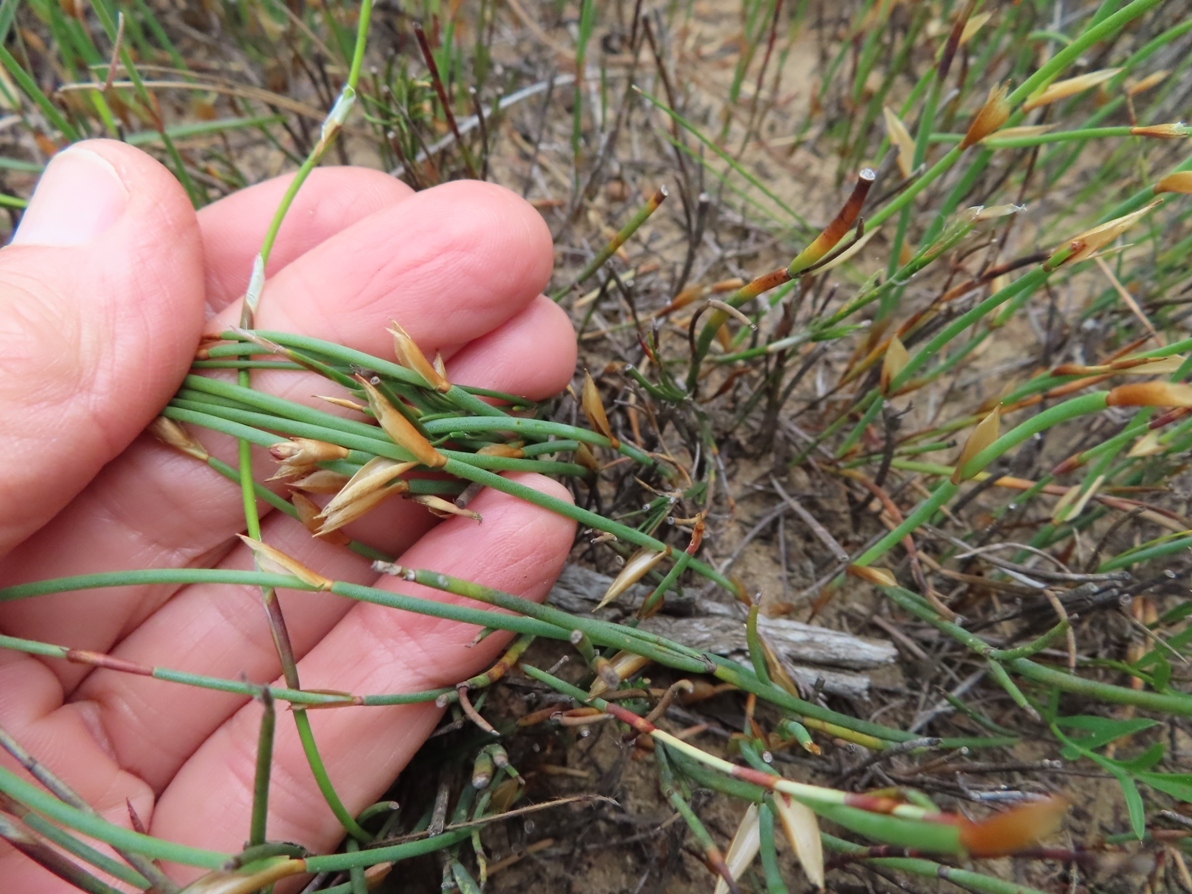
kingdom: Plantae
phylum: Tracheophyta
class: Liliopsida
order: Poales
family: Restionaceae
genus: Elegia
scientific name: Elegia verreauxii
